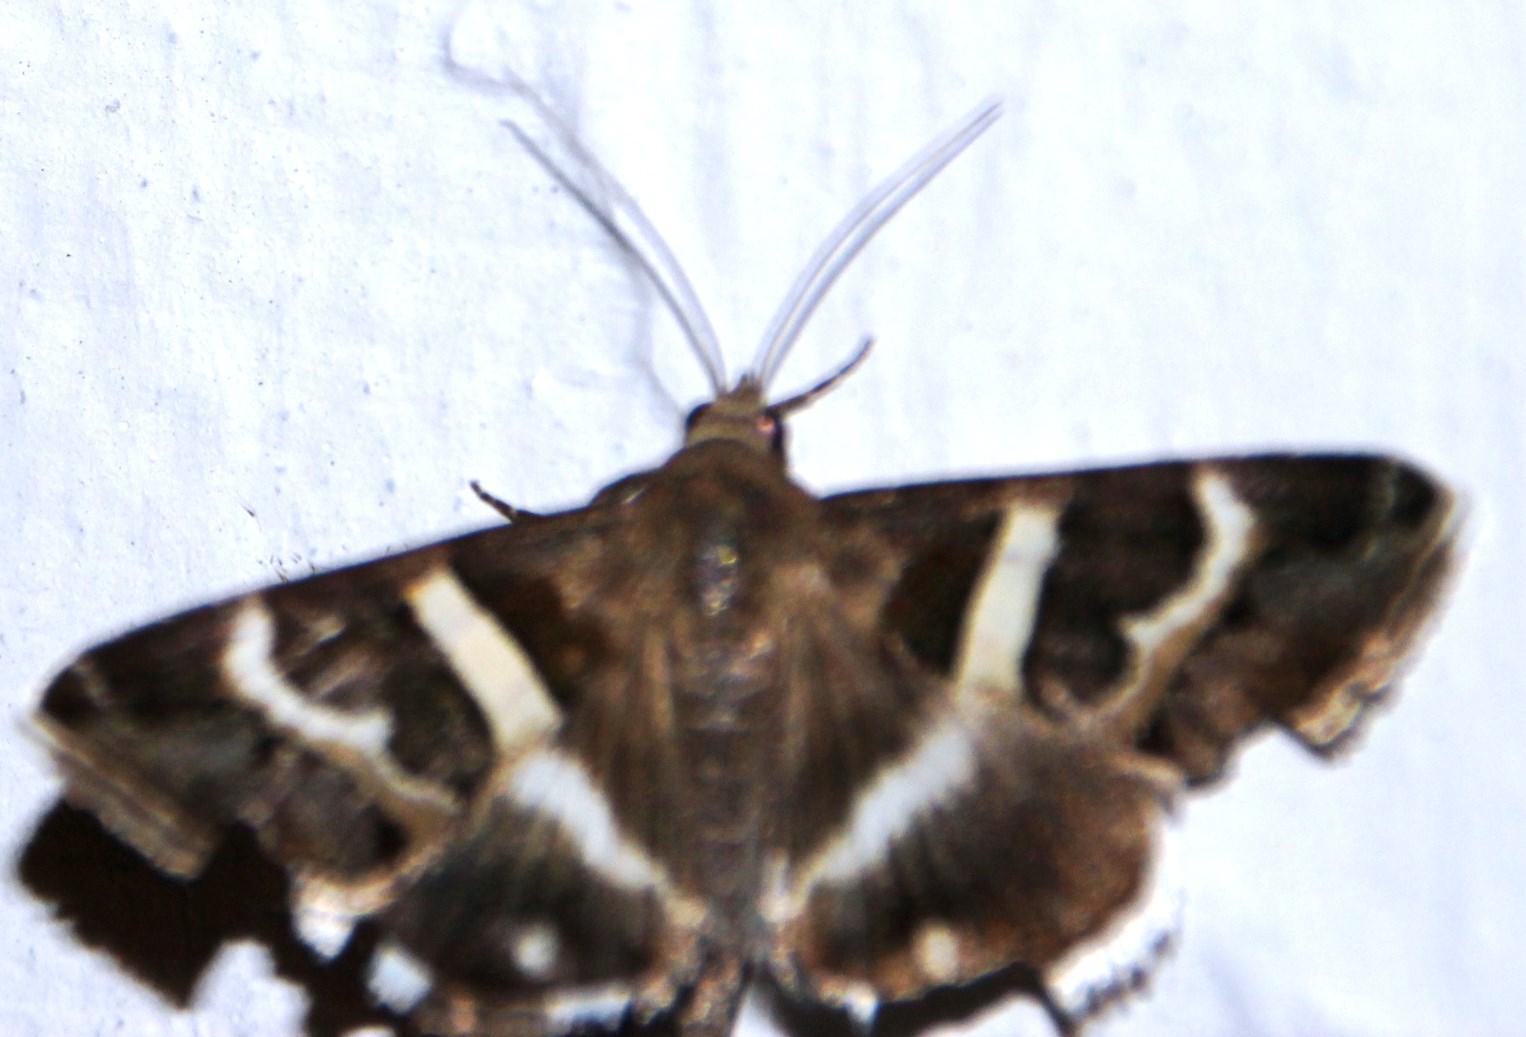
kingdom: Animalia
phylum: Arthropoda
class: Insecta
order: Lepidoptera
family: Erebidae
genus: Grammodes
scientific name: Grammodes stolida
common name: Geometrician
